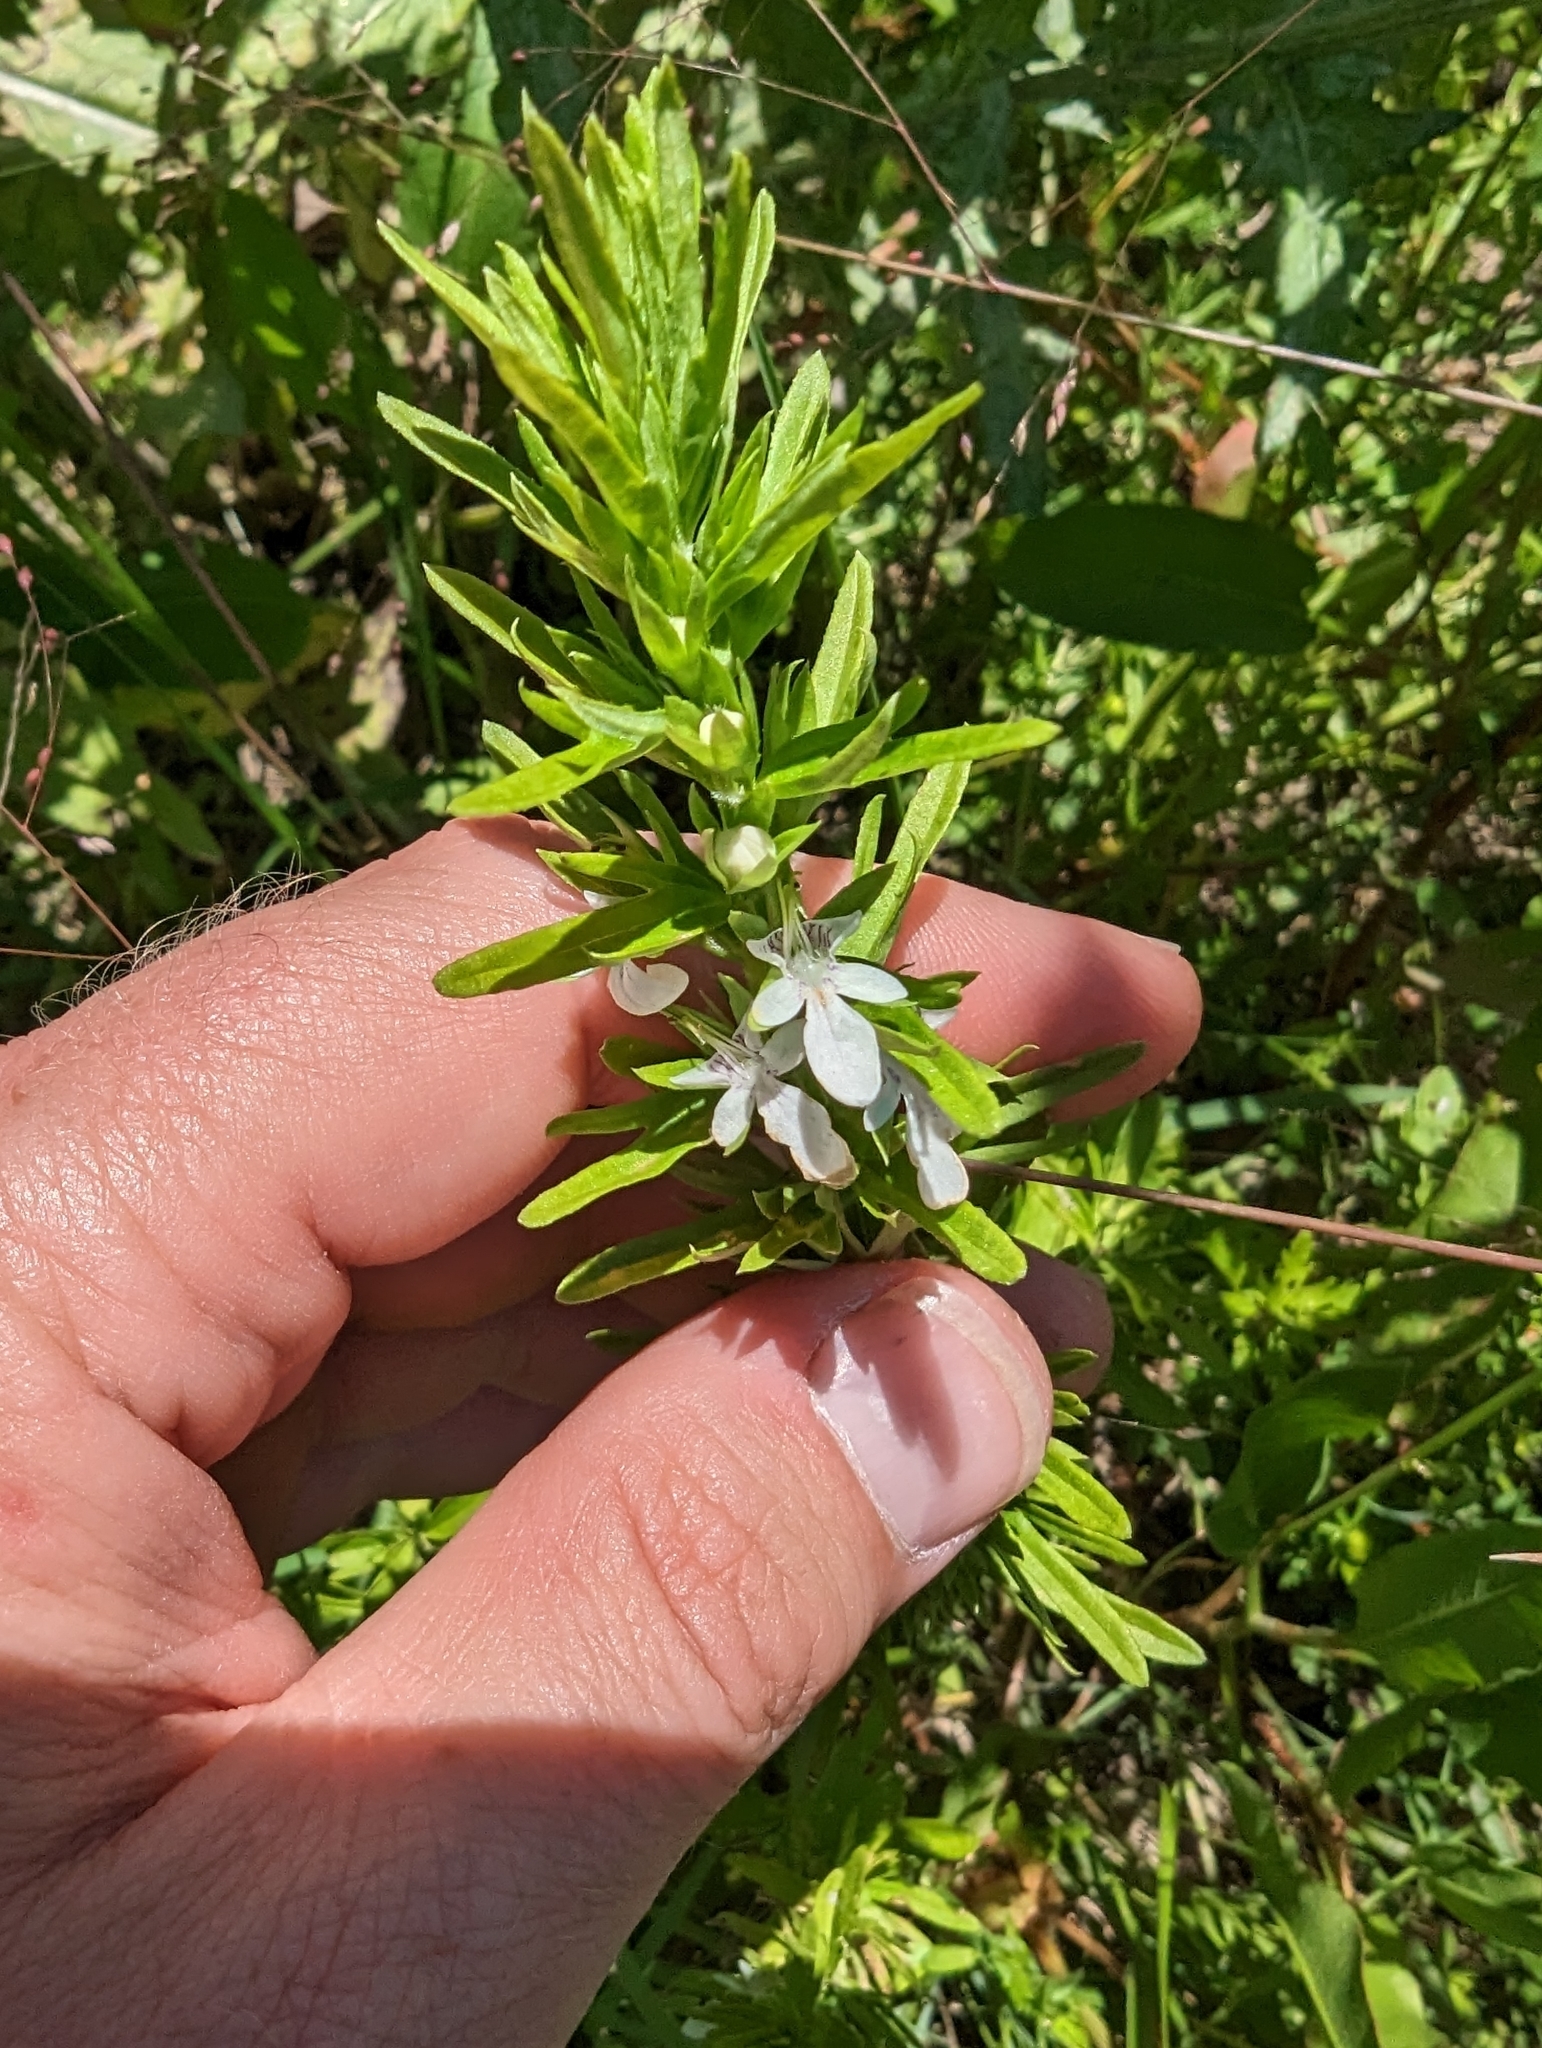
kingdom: Plantae
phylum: Tracheophyta
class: Magnoliopsida
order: Lamiales
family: Lamiaceae
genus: Teucrium
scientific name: Teucrium cubense
